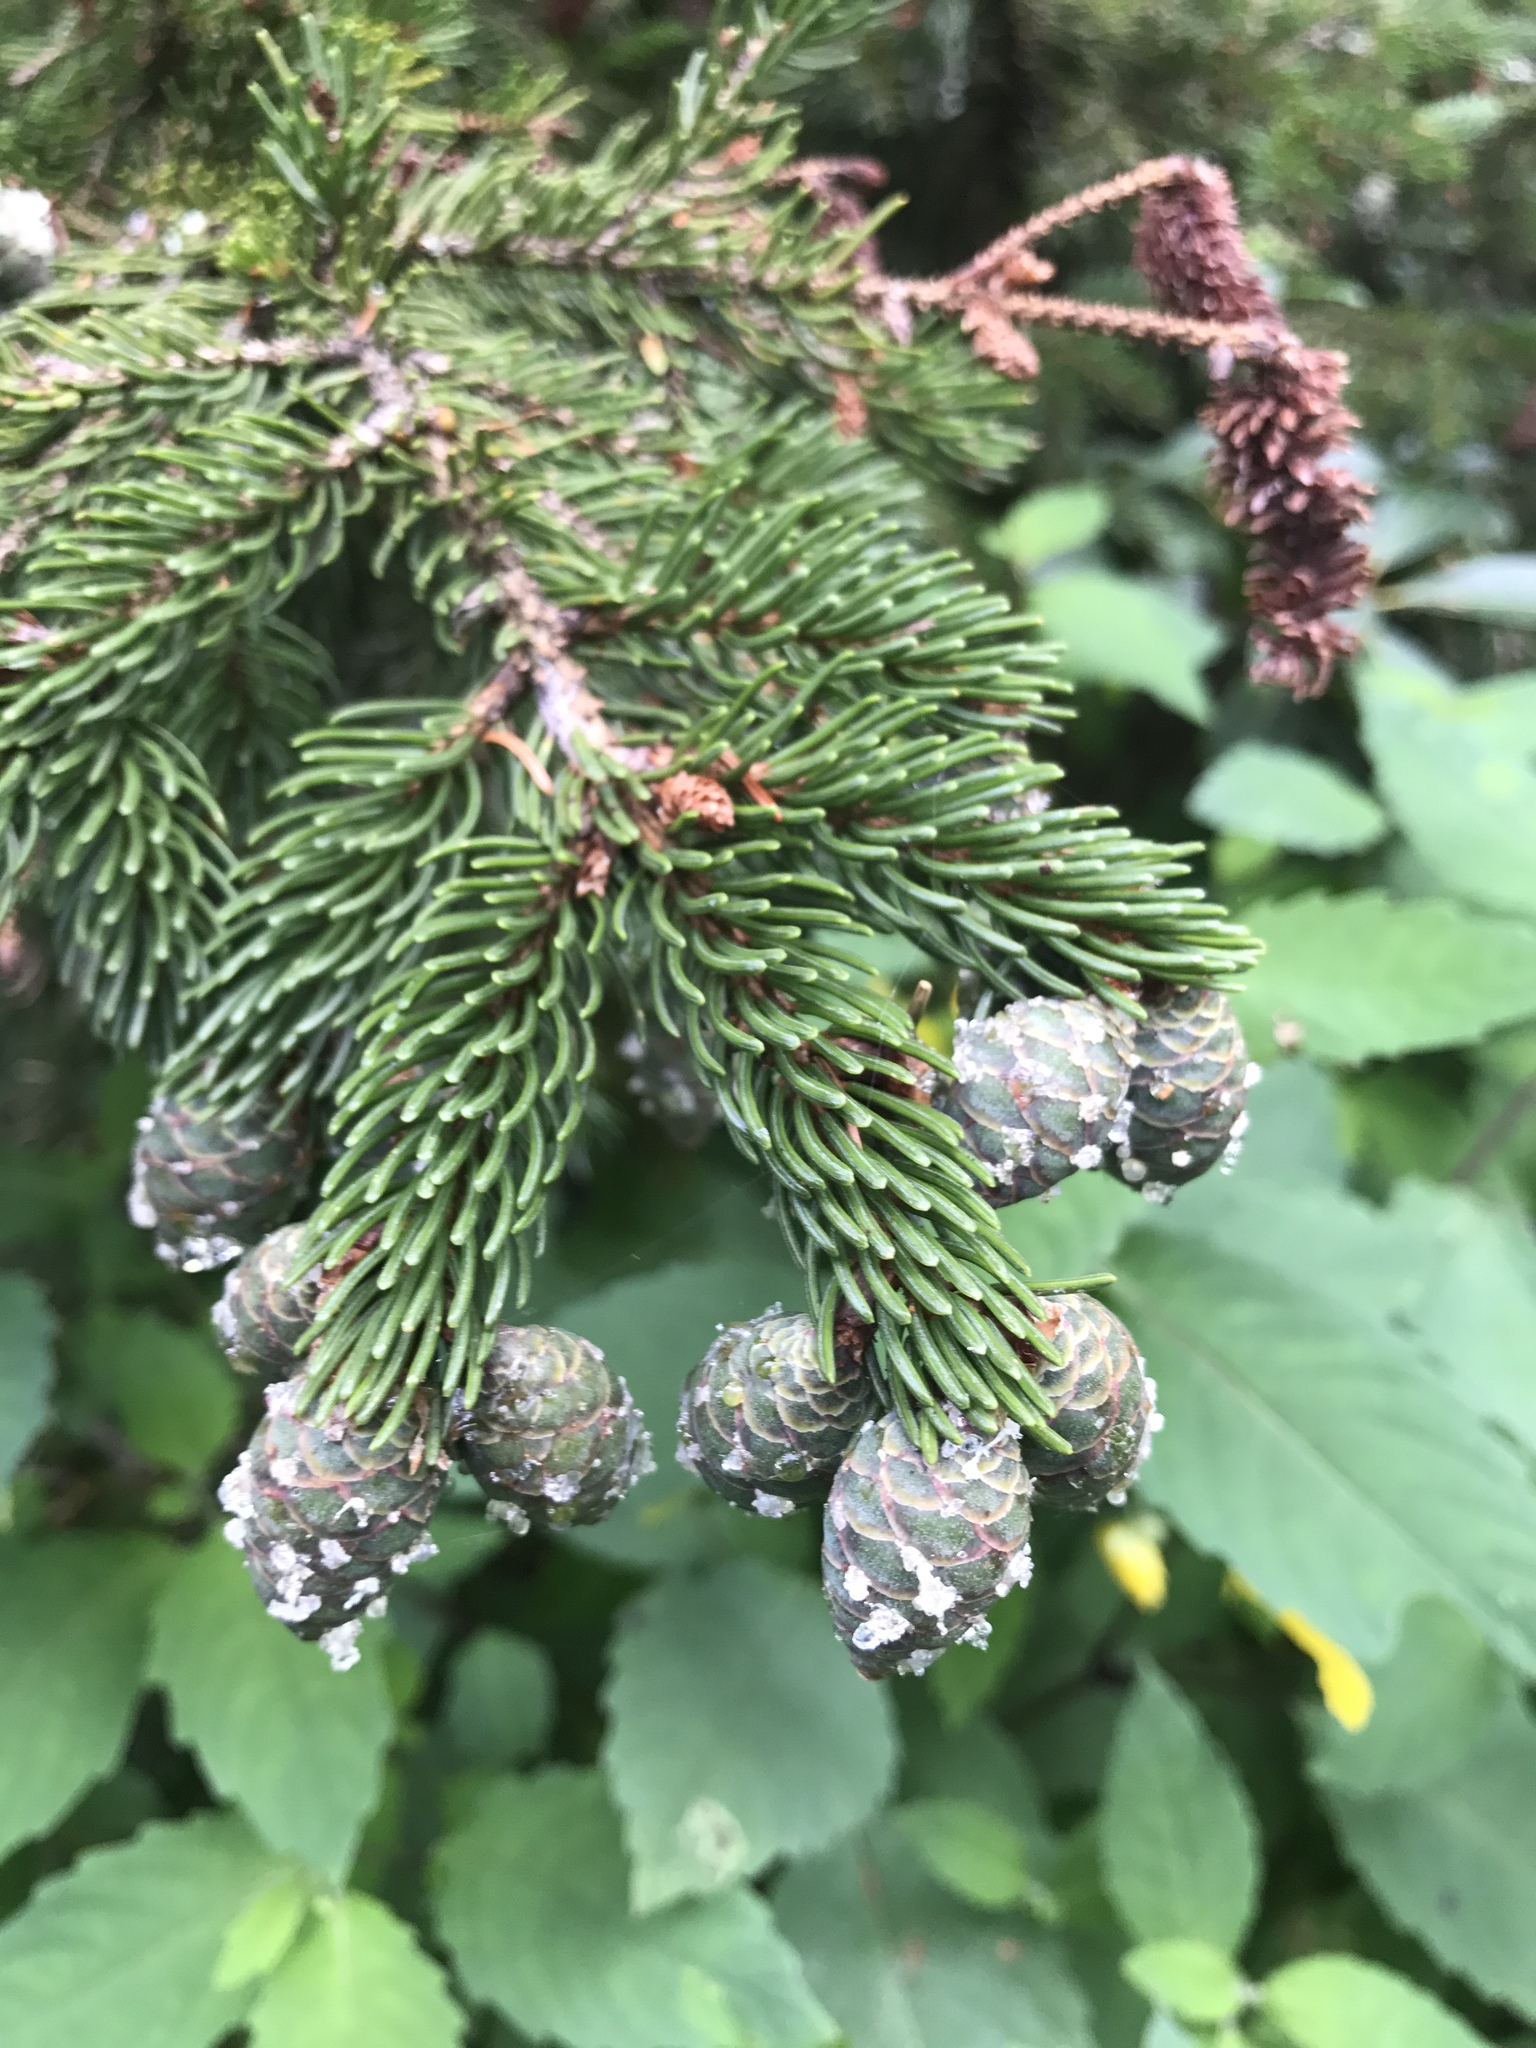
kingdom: Plantae
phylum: Tracheophyta
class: Pinopsida
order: Pinales
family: Pinaceae
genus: Picea
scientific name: Picea rubens
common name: Red spruce
